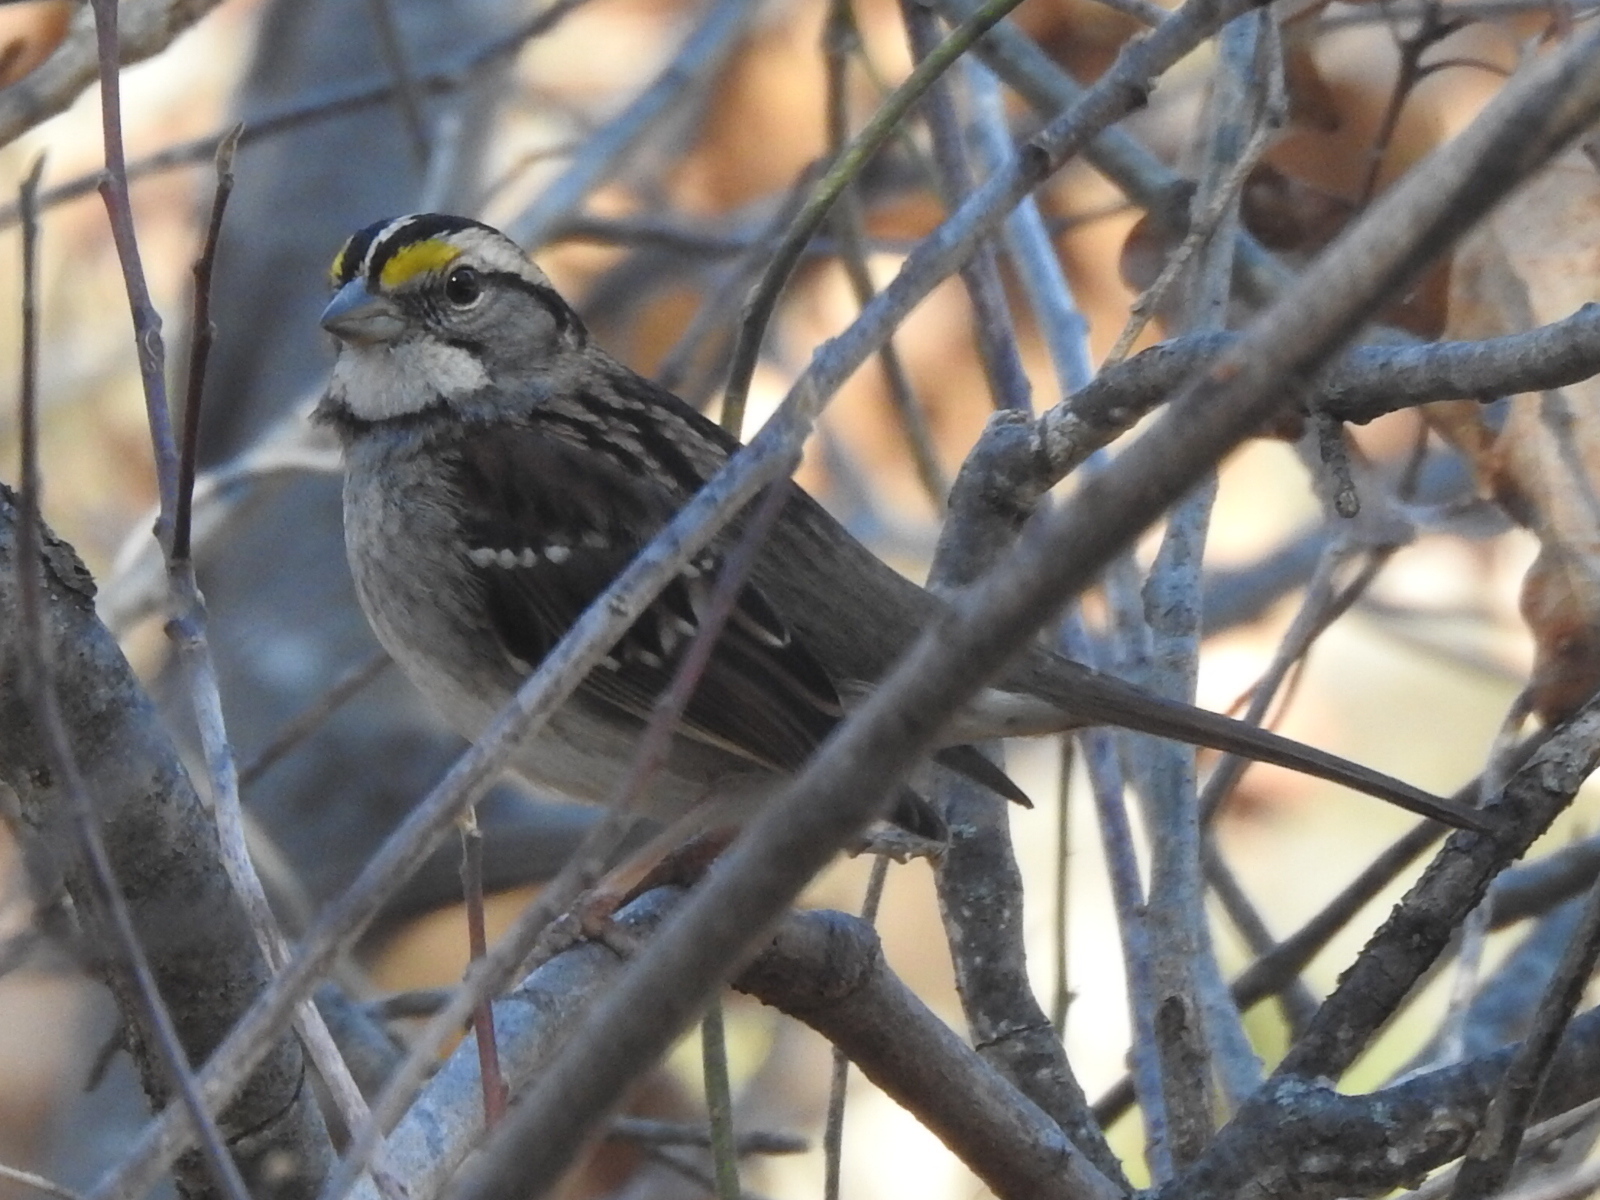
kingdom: Animalia
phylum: Chordata
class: Aves
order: Passeriformes
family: Passerellidae
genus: Zonotrichia
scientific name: Zonotrichia albicollis
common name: White-throated sparrow
